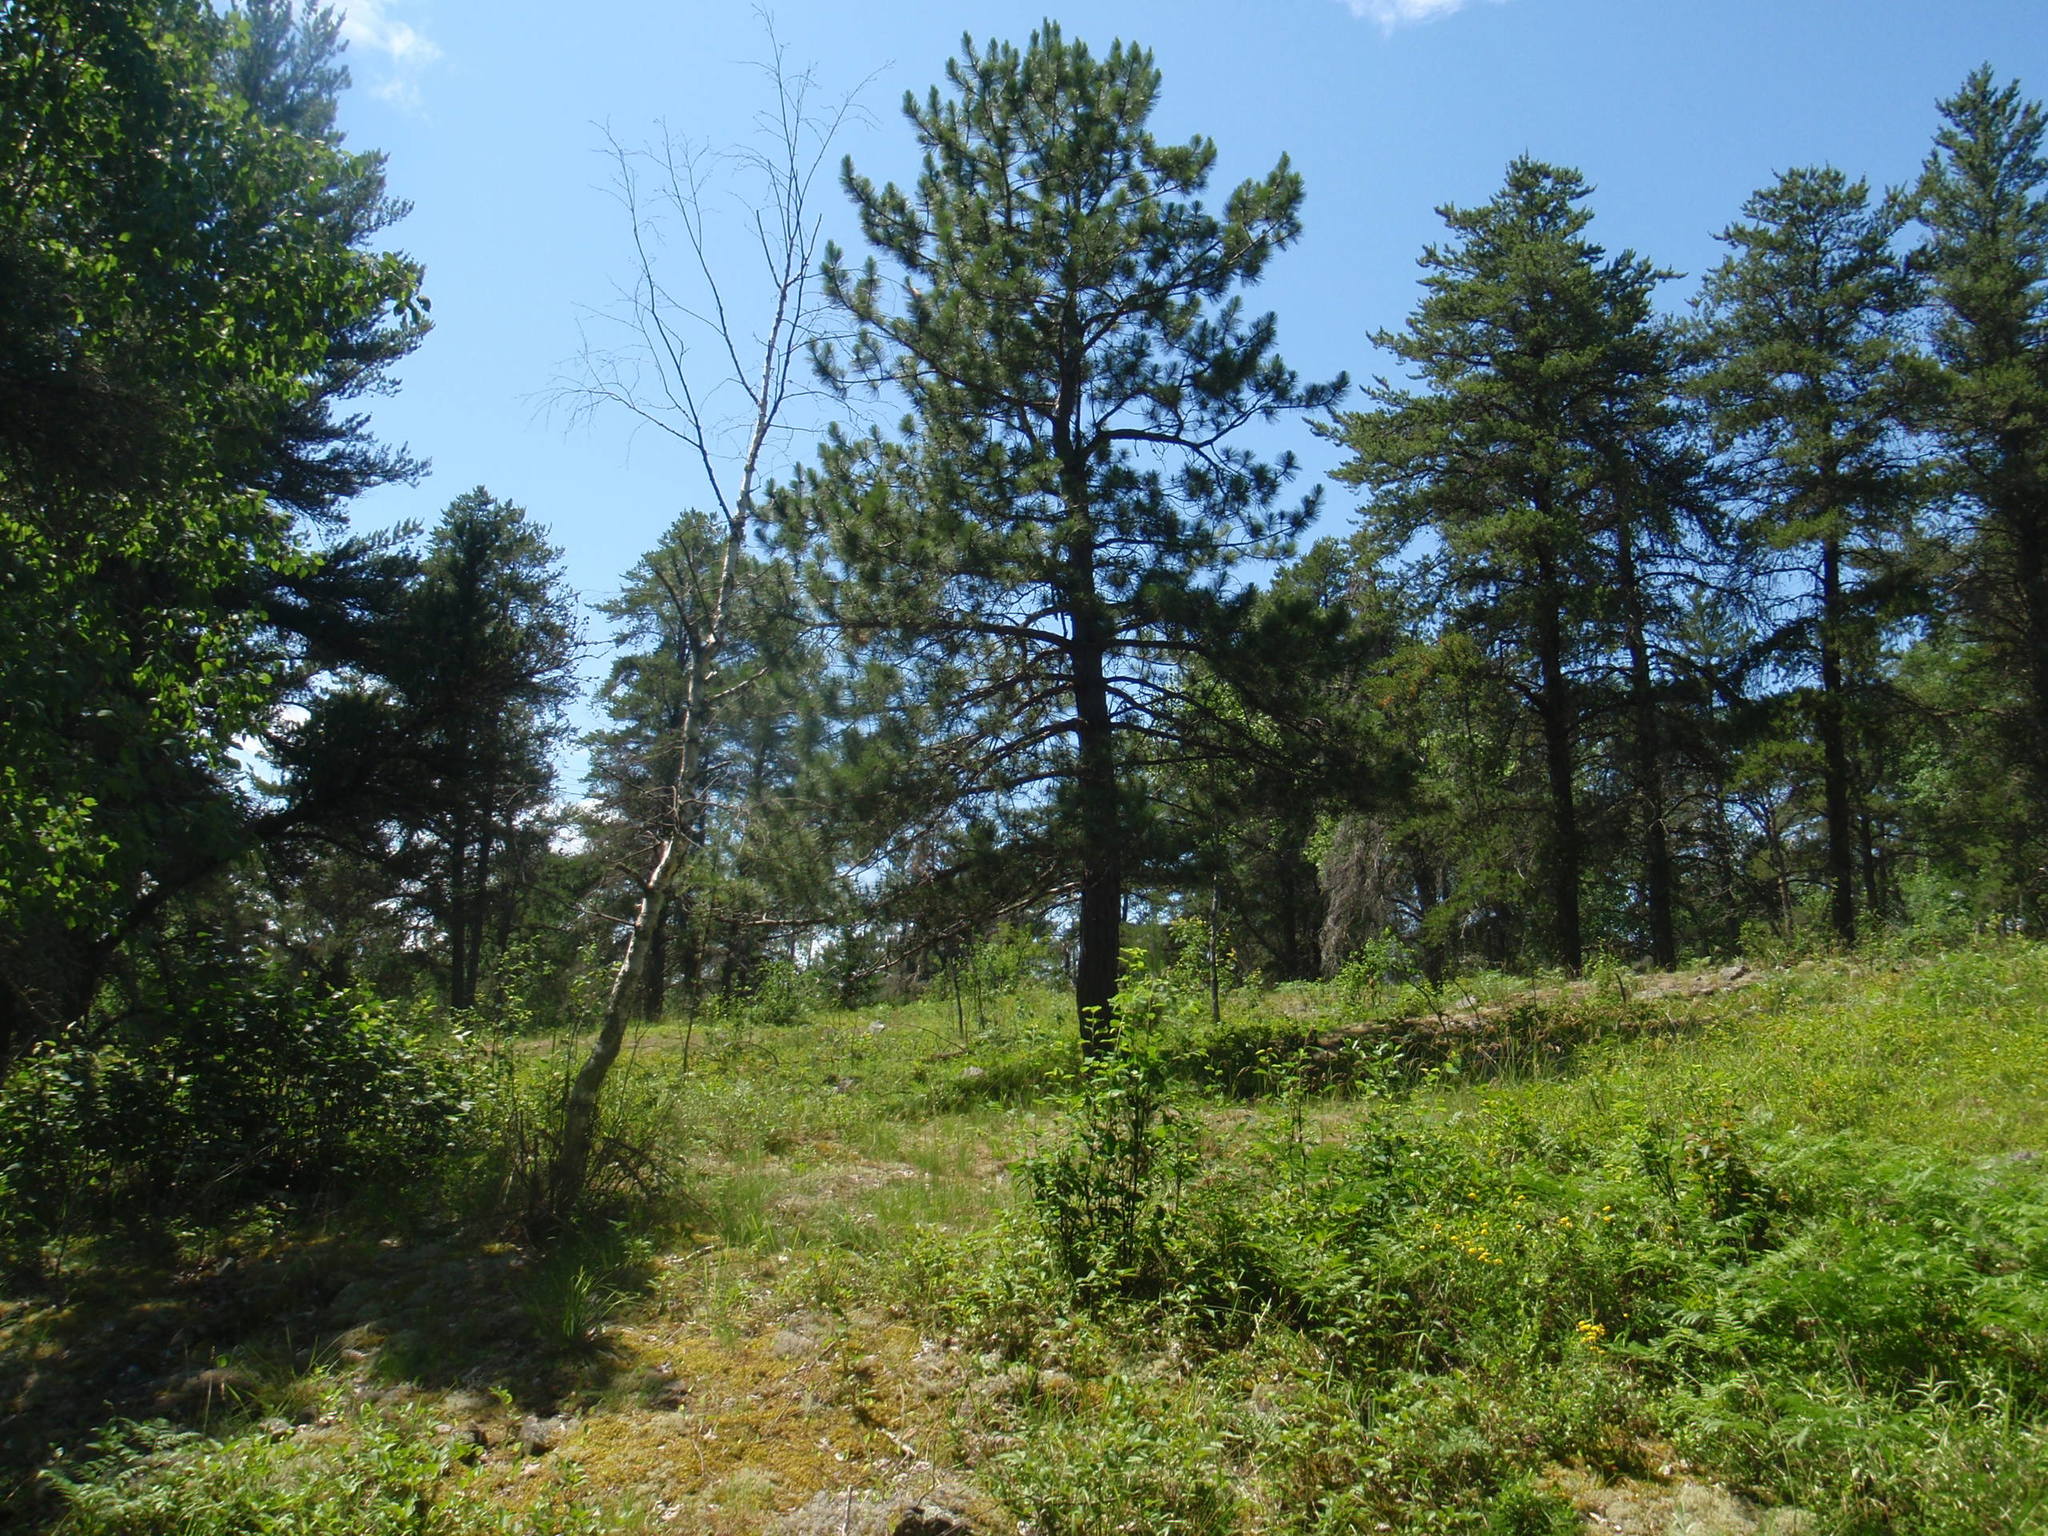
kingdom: Plantae
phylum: Tracheophyta
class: Pinopsida
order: Pinales
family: Pinaceae
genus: Pinus
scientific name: Pinus resinosa
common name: Norway pine
